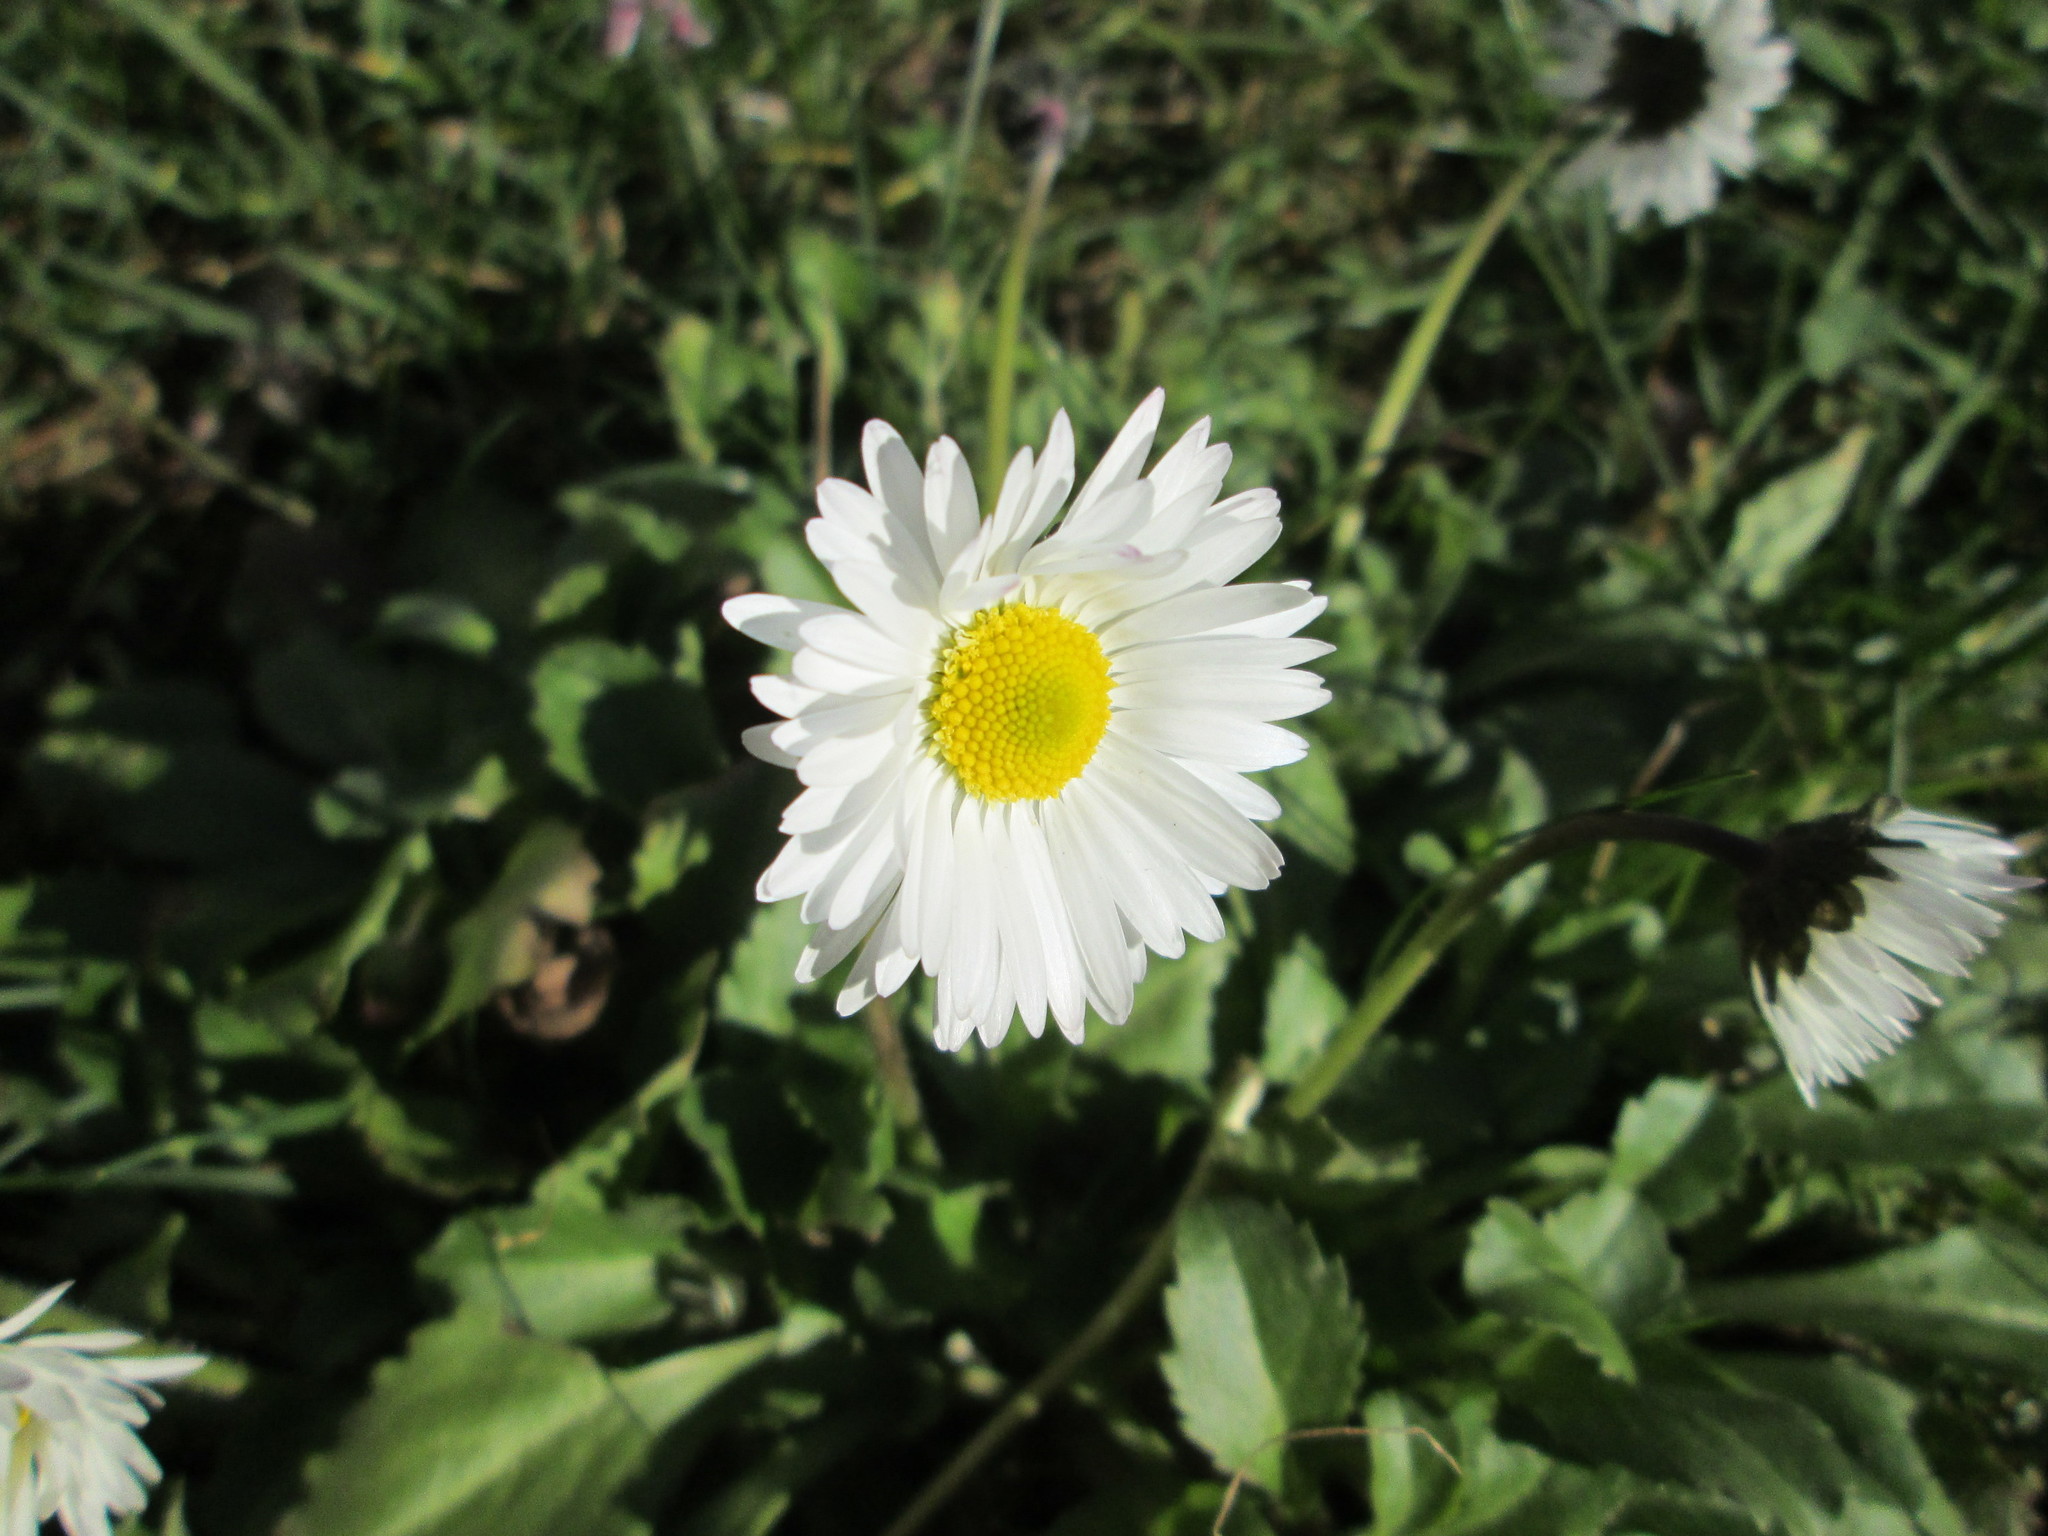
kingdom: Plantae
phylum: Tracheophyta
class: Magnoliopsida
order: Asterales
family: Asteraceae
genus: Bellis
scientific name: Bellis perennis
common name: Lawndaisy
